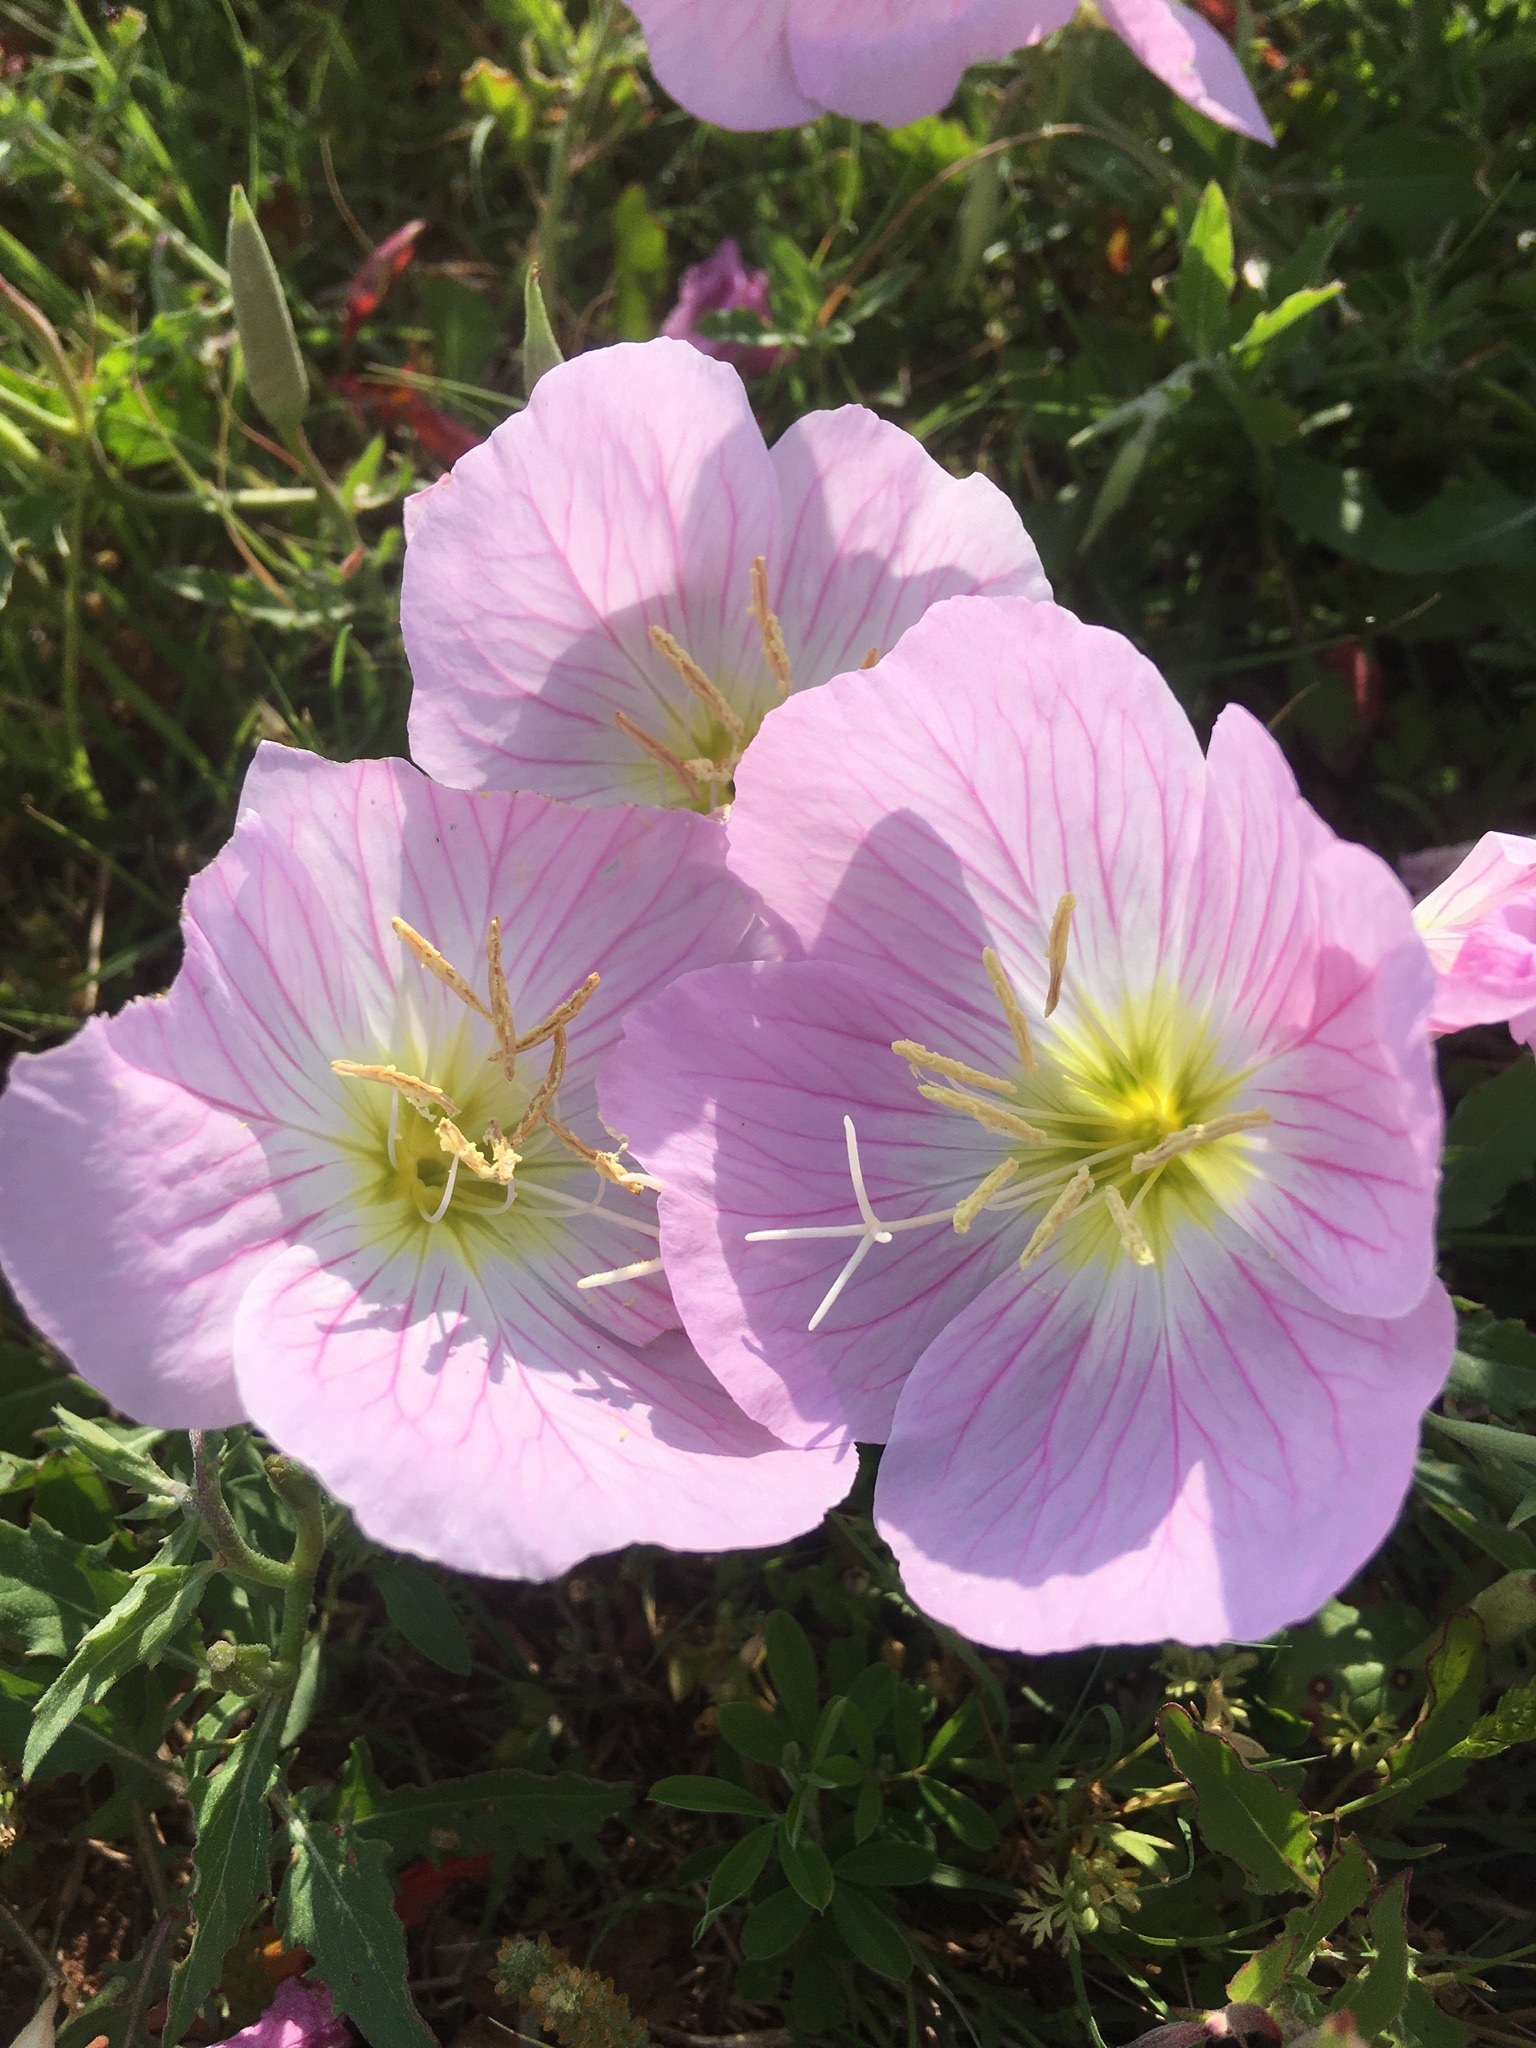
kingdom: Plantae
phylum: Tracheophyta
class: Magnoliopsida
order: Myrtales
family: Onagraceae
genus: Oenothera
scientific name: Oenothera speciosa
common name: White evening-primrose
